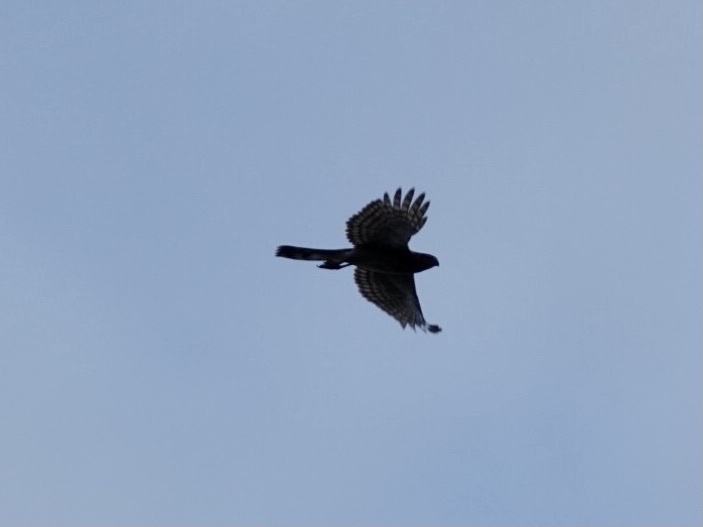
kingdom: Animalia
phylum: Chordata
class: Aves
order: Accipitriformes
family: Accipitridae
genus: Accipiter
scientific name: Accipiter cooperii
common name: Cooper's hawk
